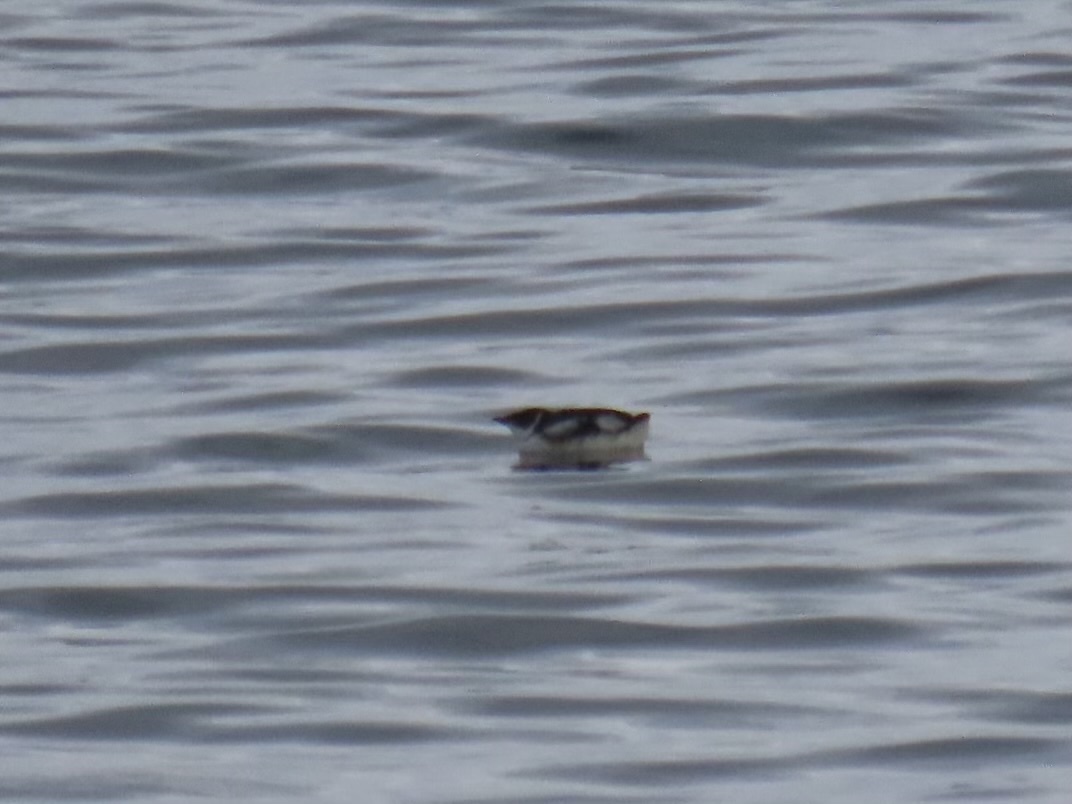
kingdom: Animalia
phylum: Chordata
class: Aves
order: Charadriiformes
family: Alcidae
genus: Brachyramphus
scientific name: Brachyramphus marmoratus
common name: Marbled murrelet
